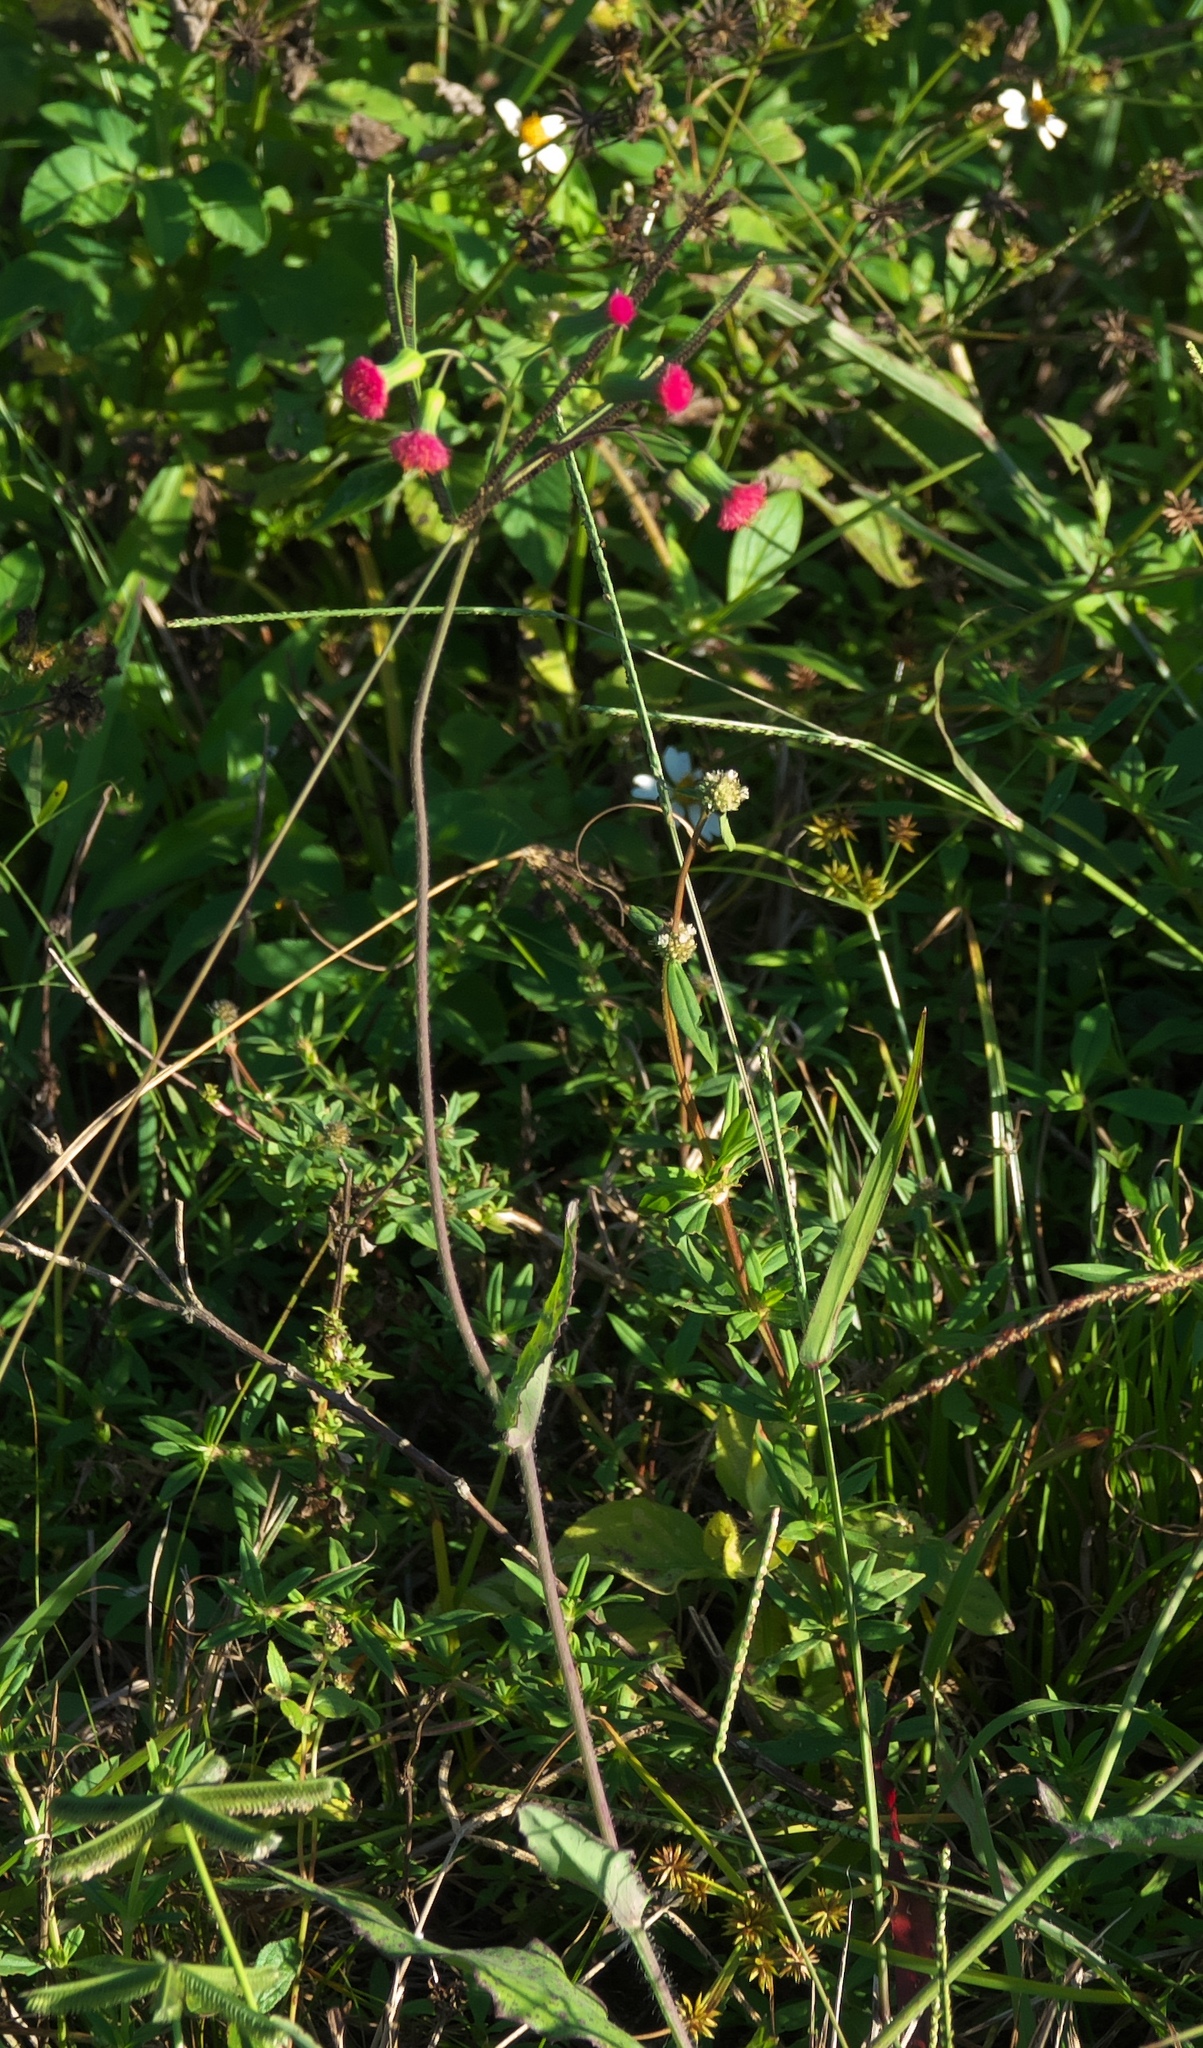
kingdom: Plantae
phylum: Tracheophyta
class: Magnoliopsida
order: Asterales
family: Asteraceae
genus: Emilia
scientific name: Emilia fosbergii
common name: Florida tasselflower
